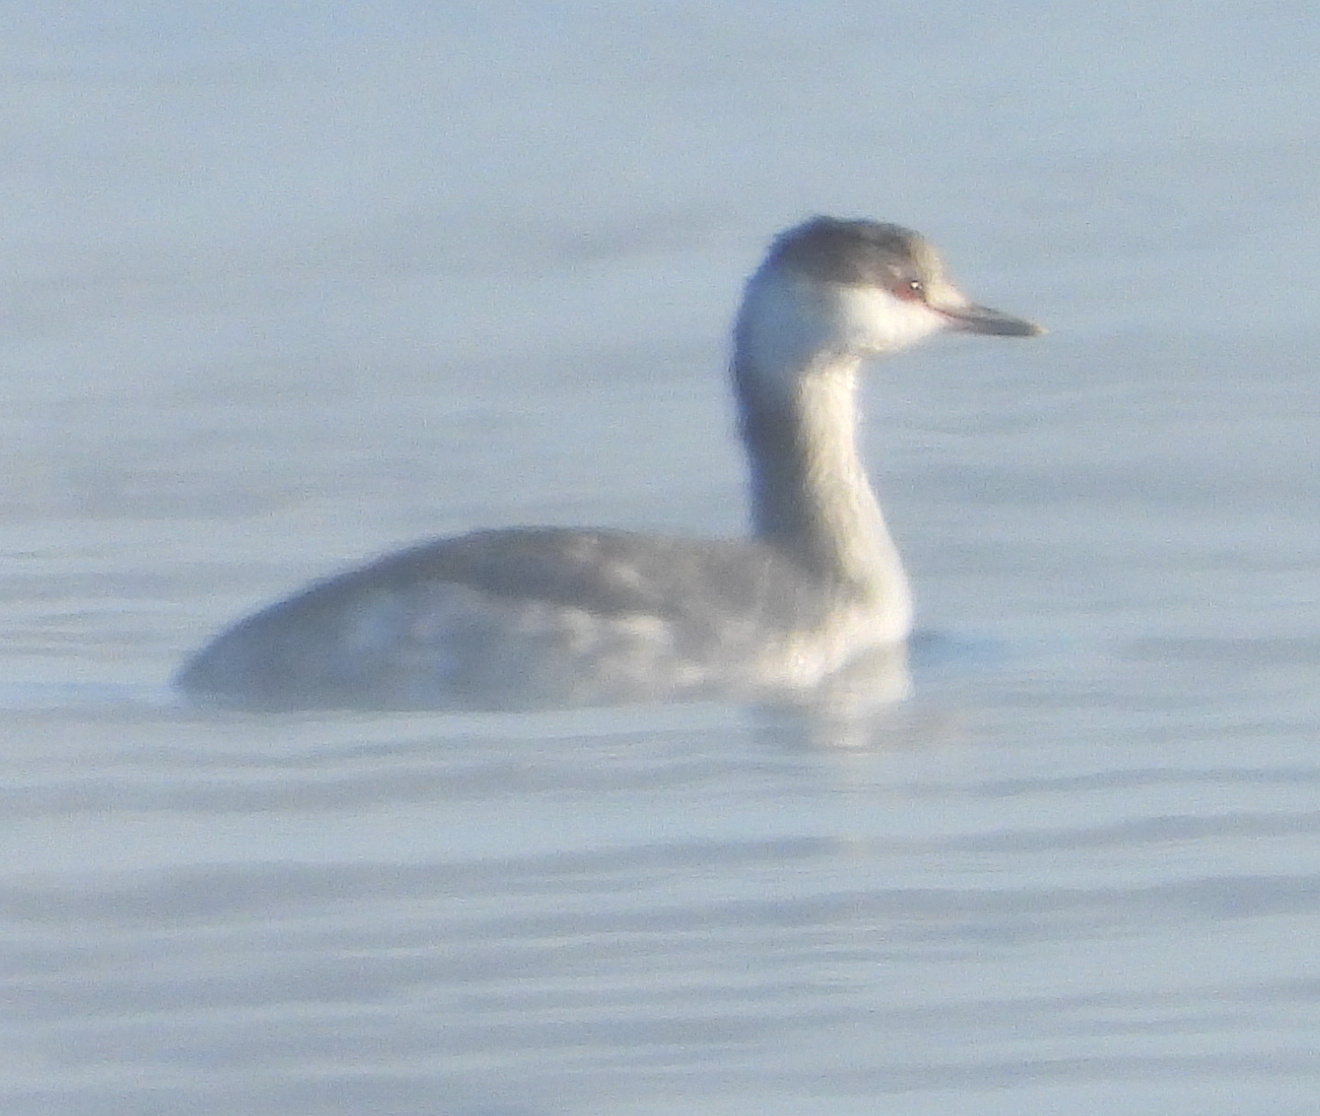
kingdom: Animalia
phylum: Chordata
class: Aves
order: Podicipediformes
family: Podicipedidae
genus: Podiceps
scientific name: Podiceps auritus
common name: Horned grebe
